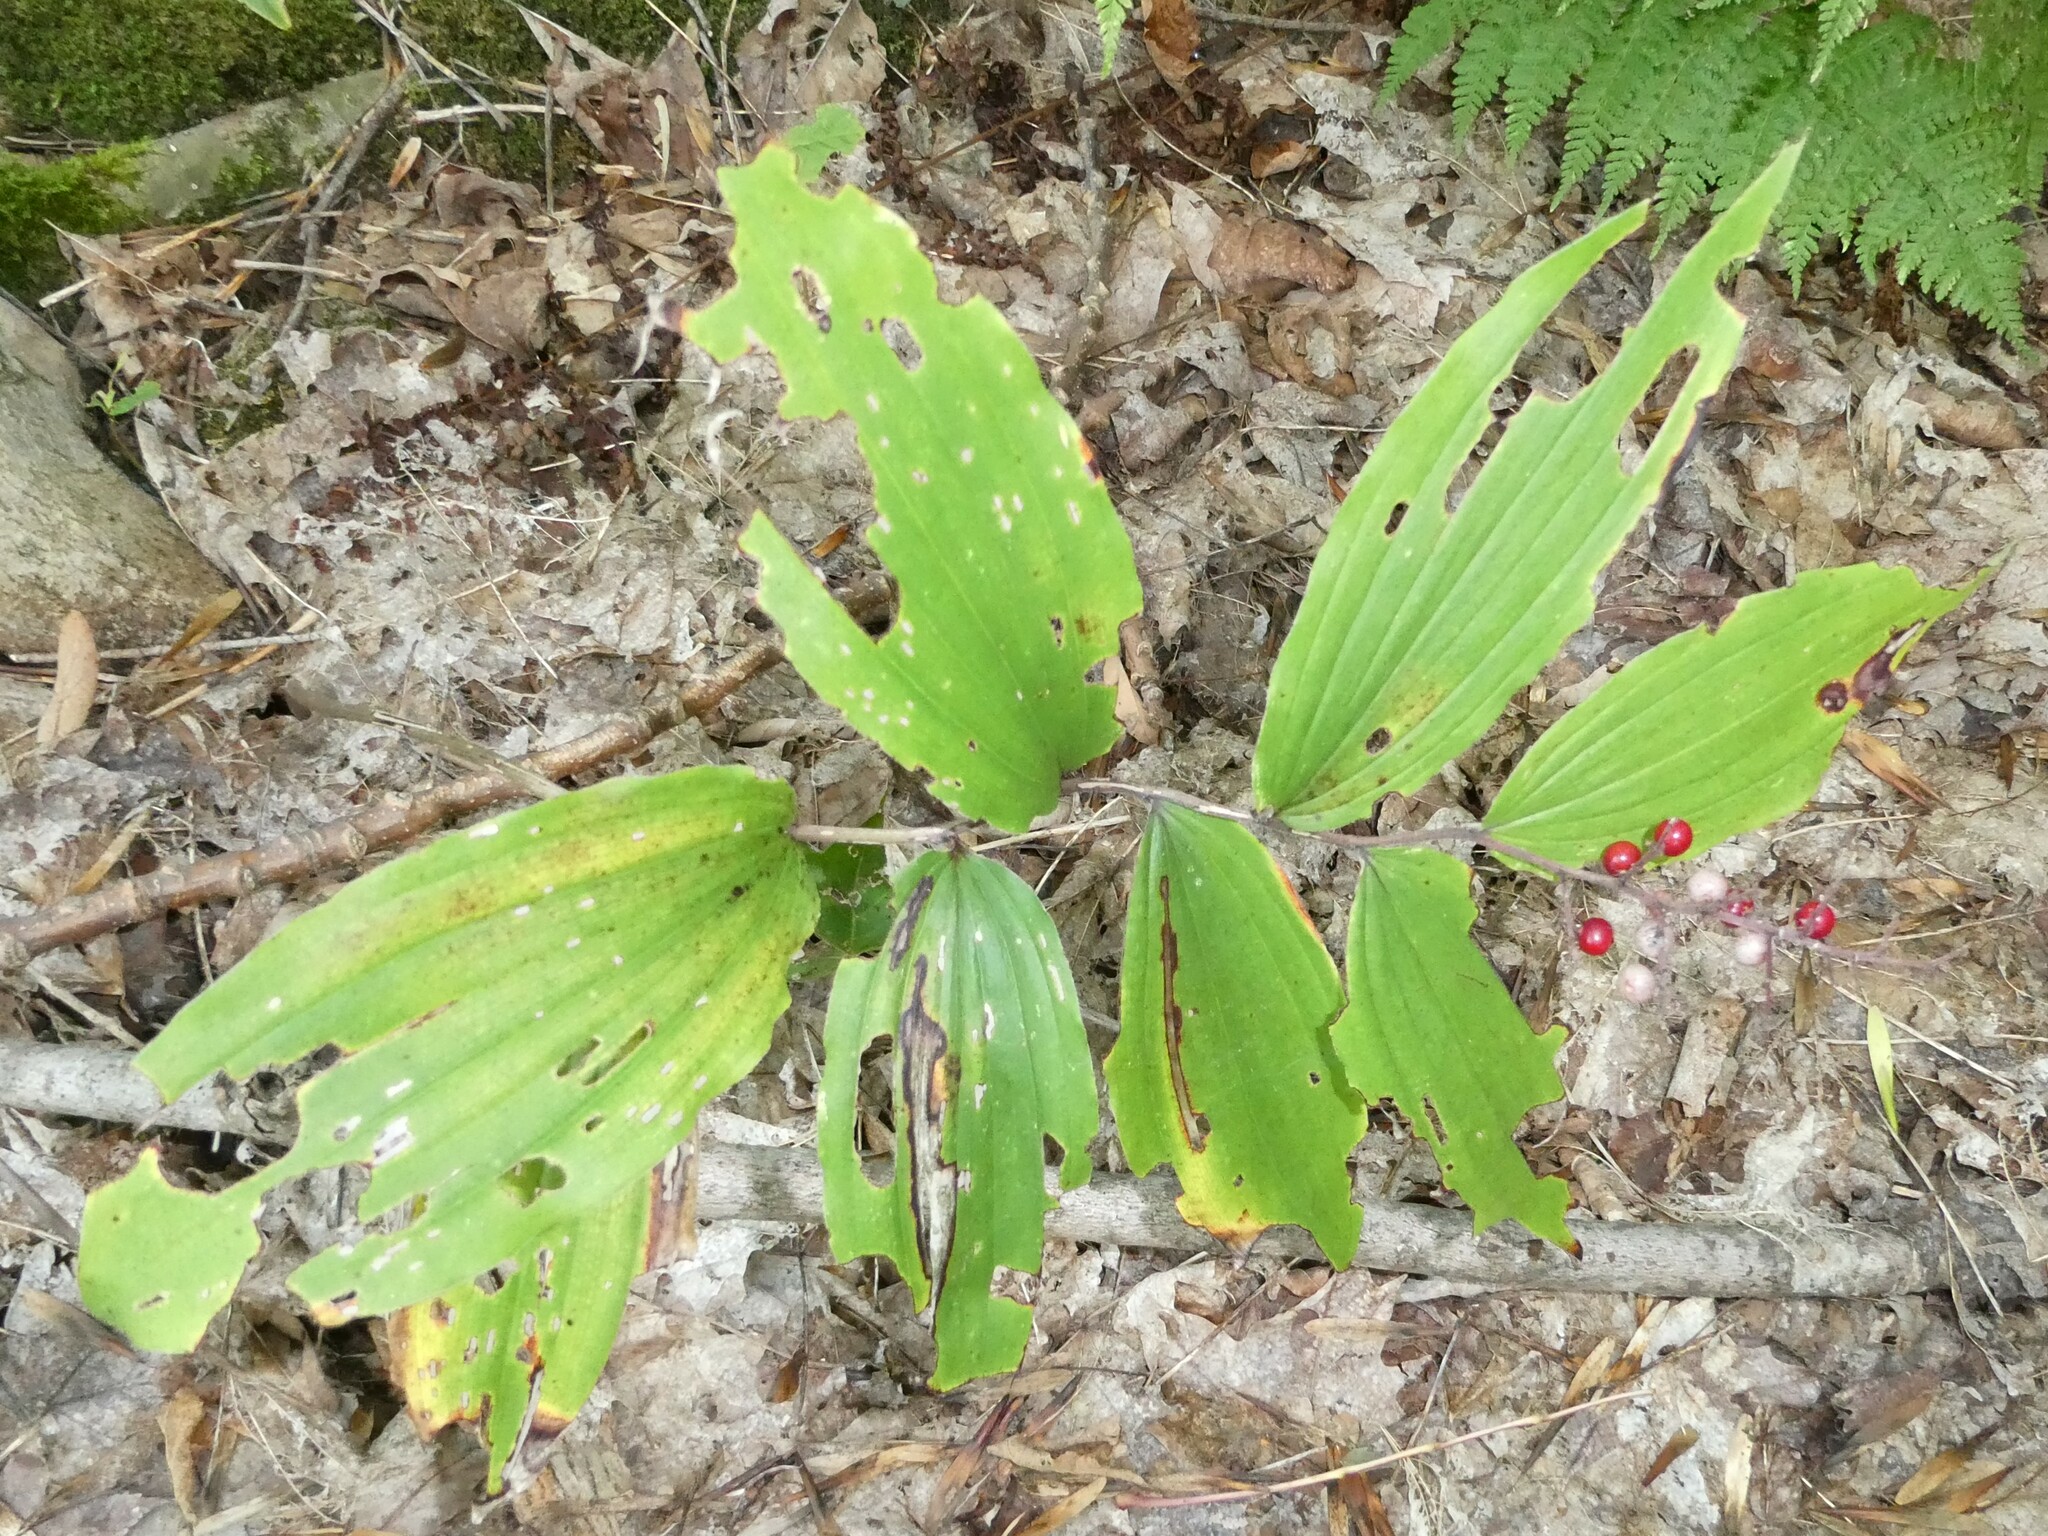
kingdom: Plantae
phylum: Tracheophyta
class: Liliopsida
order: Asparagales
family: Asparagaceae
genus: Maianthemum
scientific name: Maianthemum racemosum
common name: False spikenard
